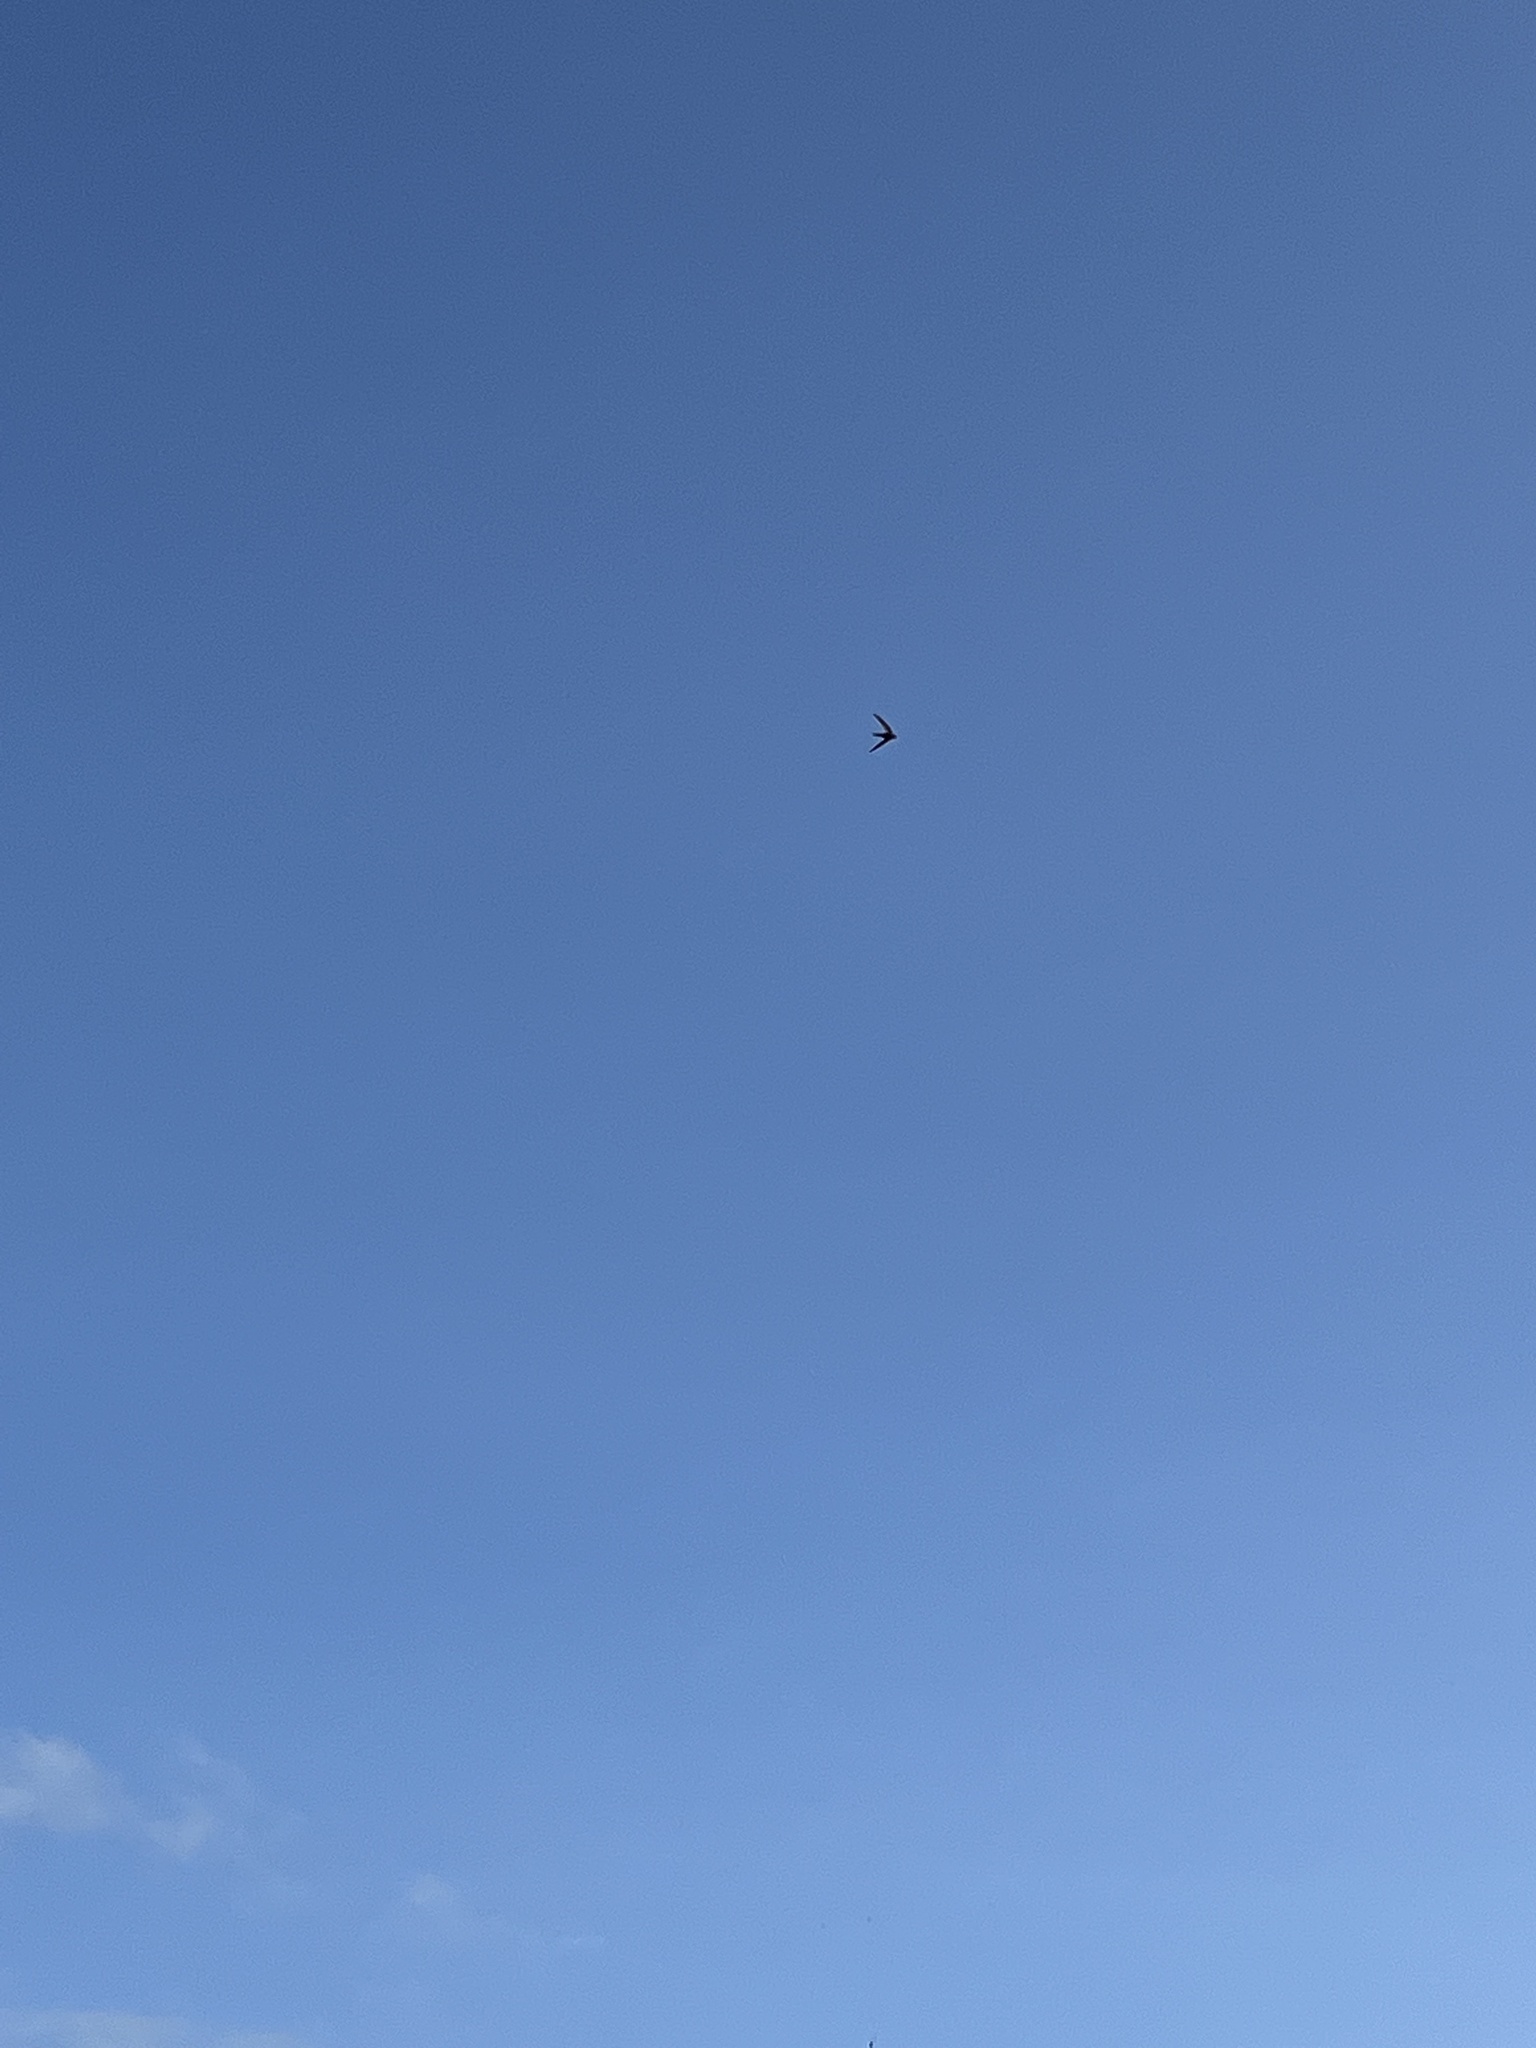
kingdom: Animalia
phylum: Chordata
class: Aves
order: Apodiformes
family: Apodidae
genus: Apus
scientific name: Apus apus
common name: Common swift
